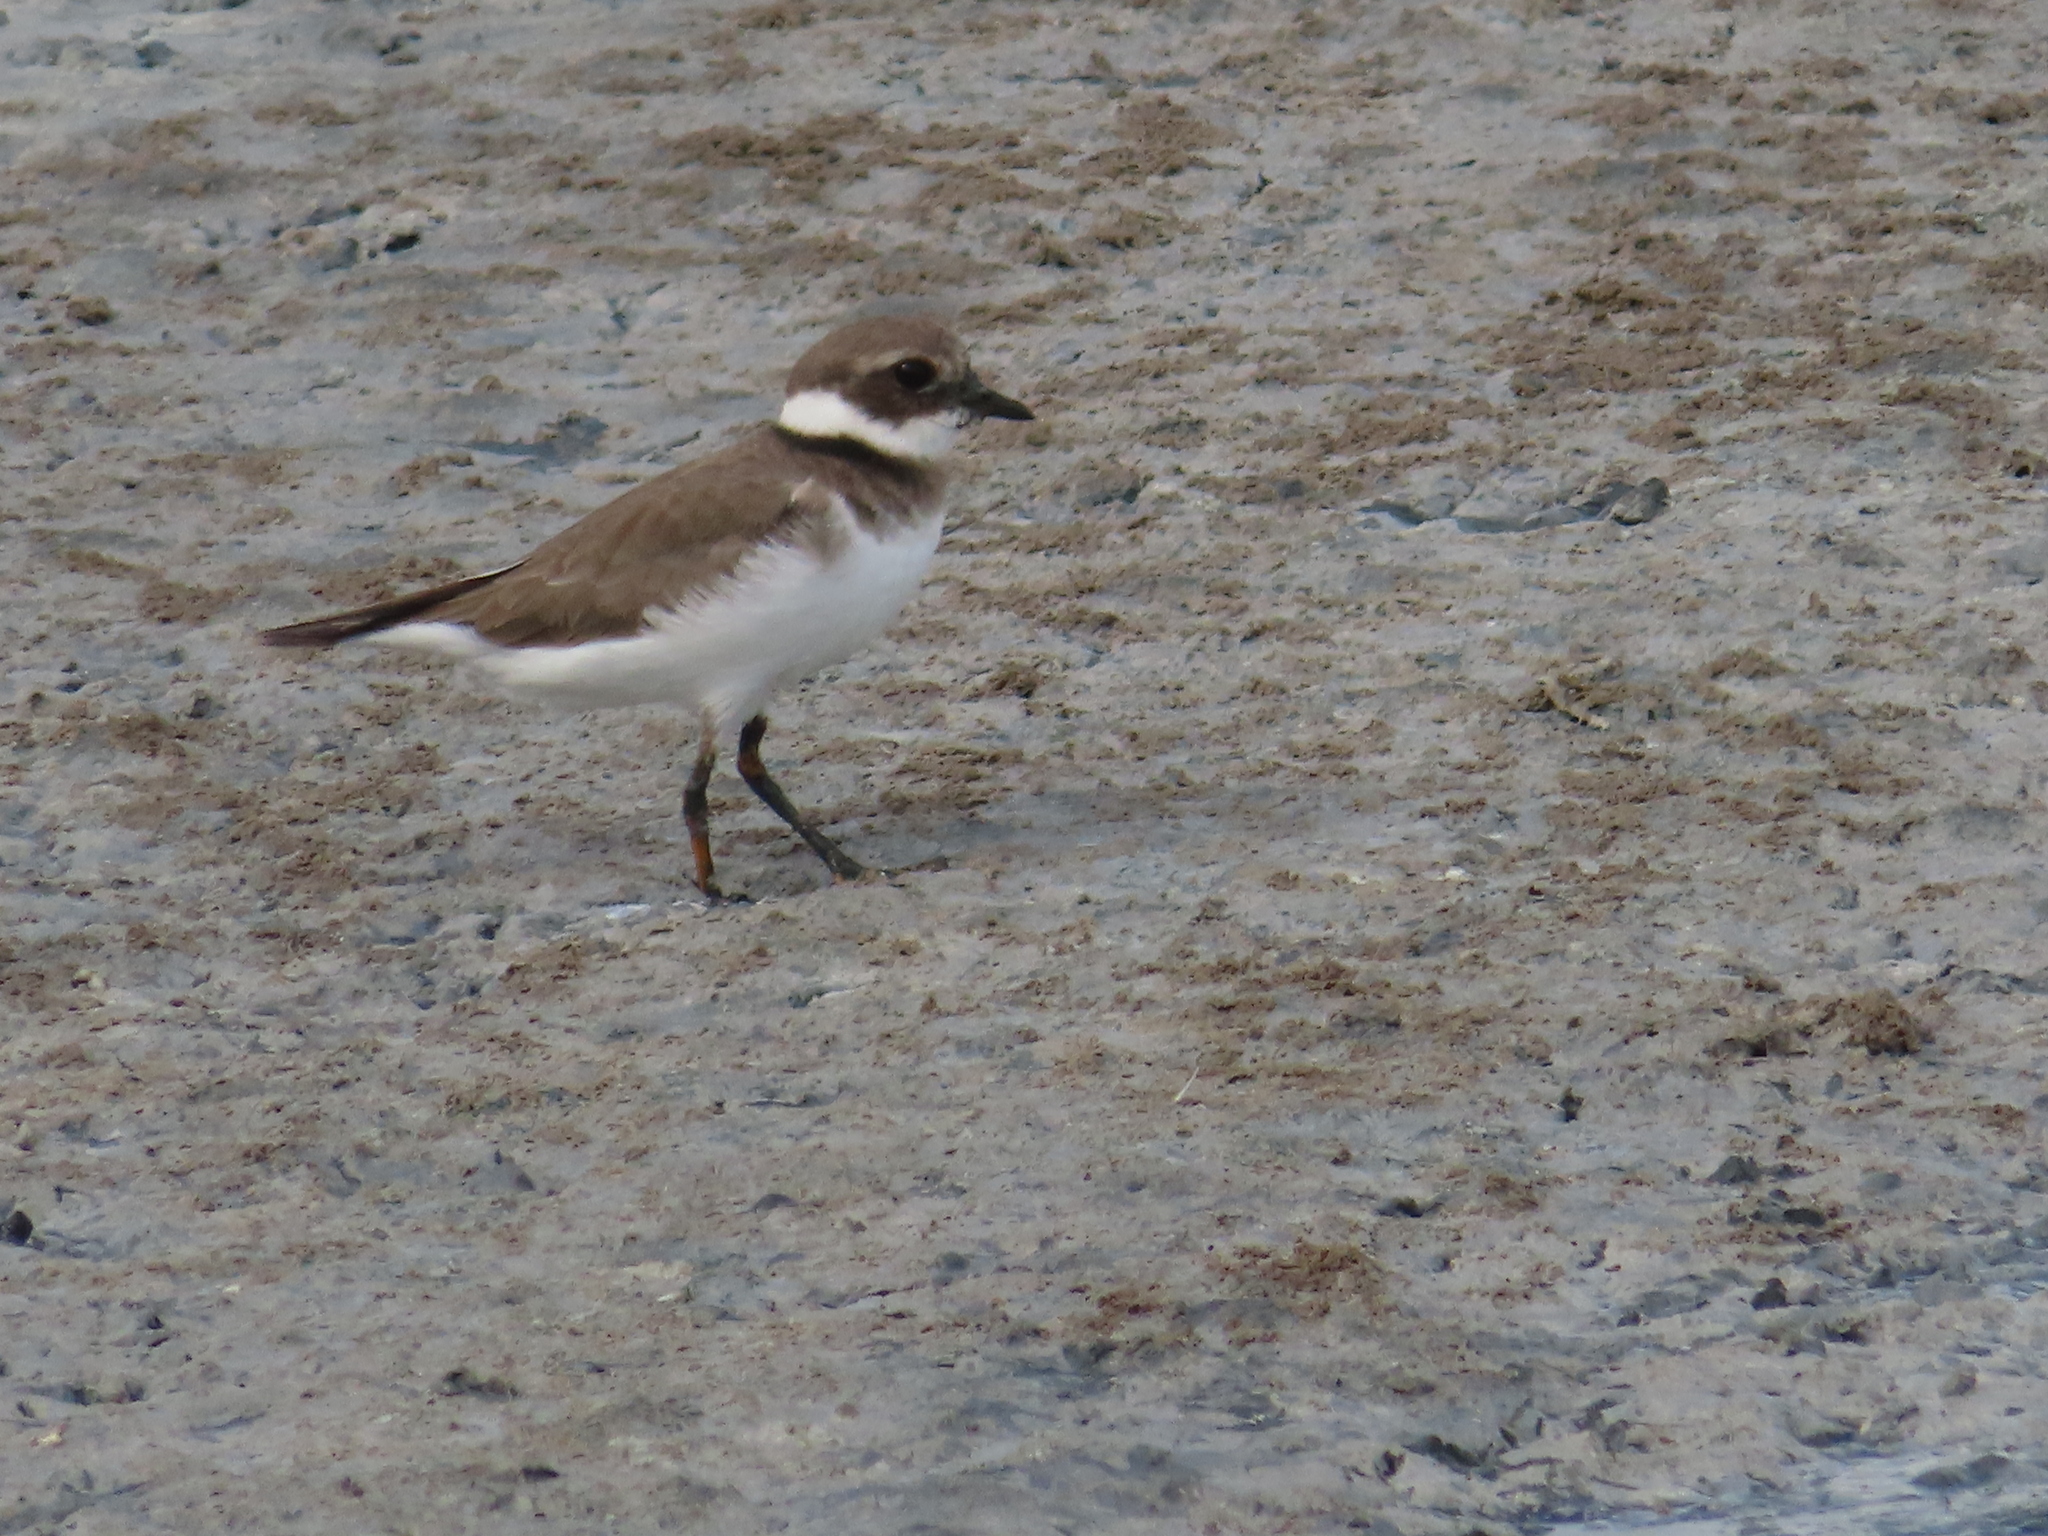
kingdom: Animalia
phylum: Chordata
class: Aves
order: Charadriiformes
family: Charadriidae
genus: Charadrius
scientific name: Charadrius hiaticula
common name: Common ringed plover
